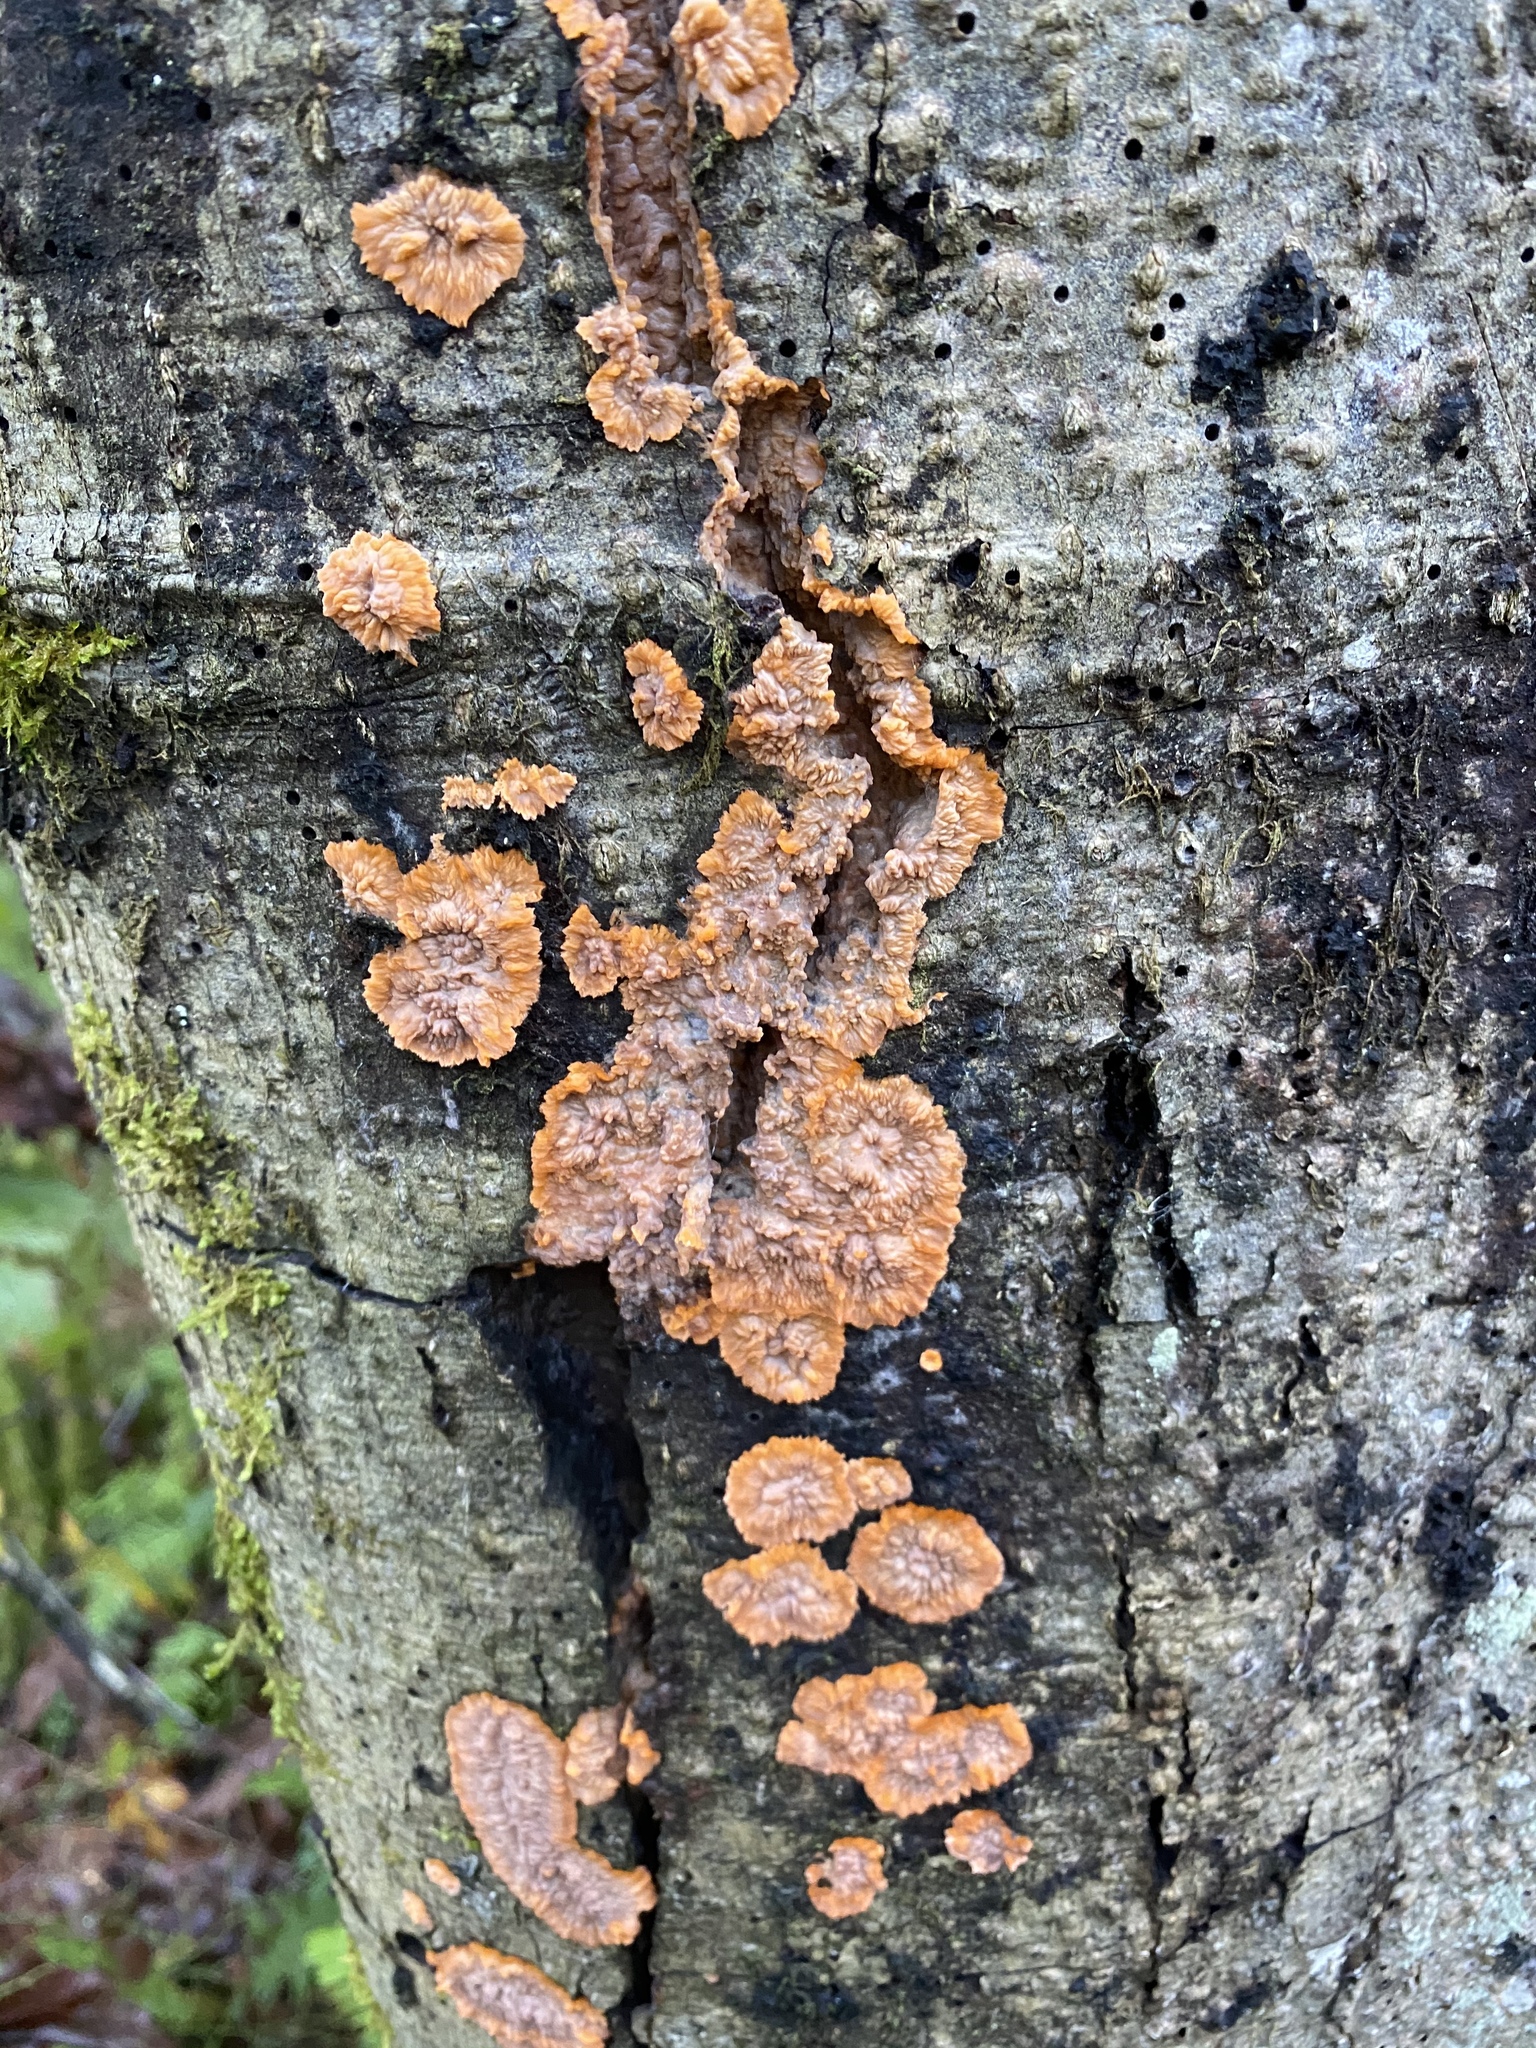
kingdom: Fungi
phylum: Basidiomycota
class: Agaricomycetes
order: Polyporales
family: Meruliaceae
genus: Phlebia
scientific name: Phlebia radiata
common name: Wrinkled crust
